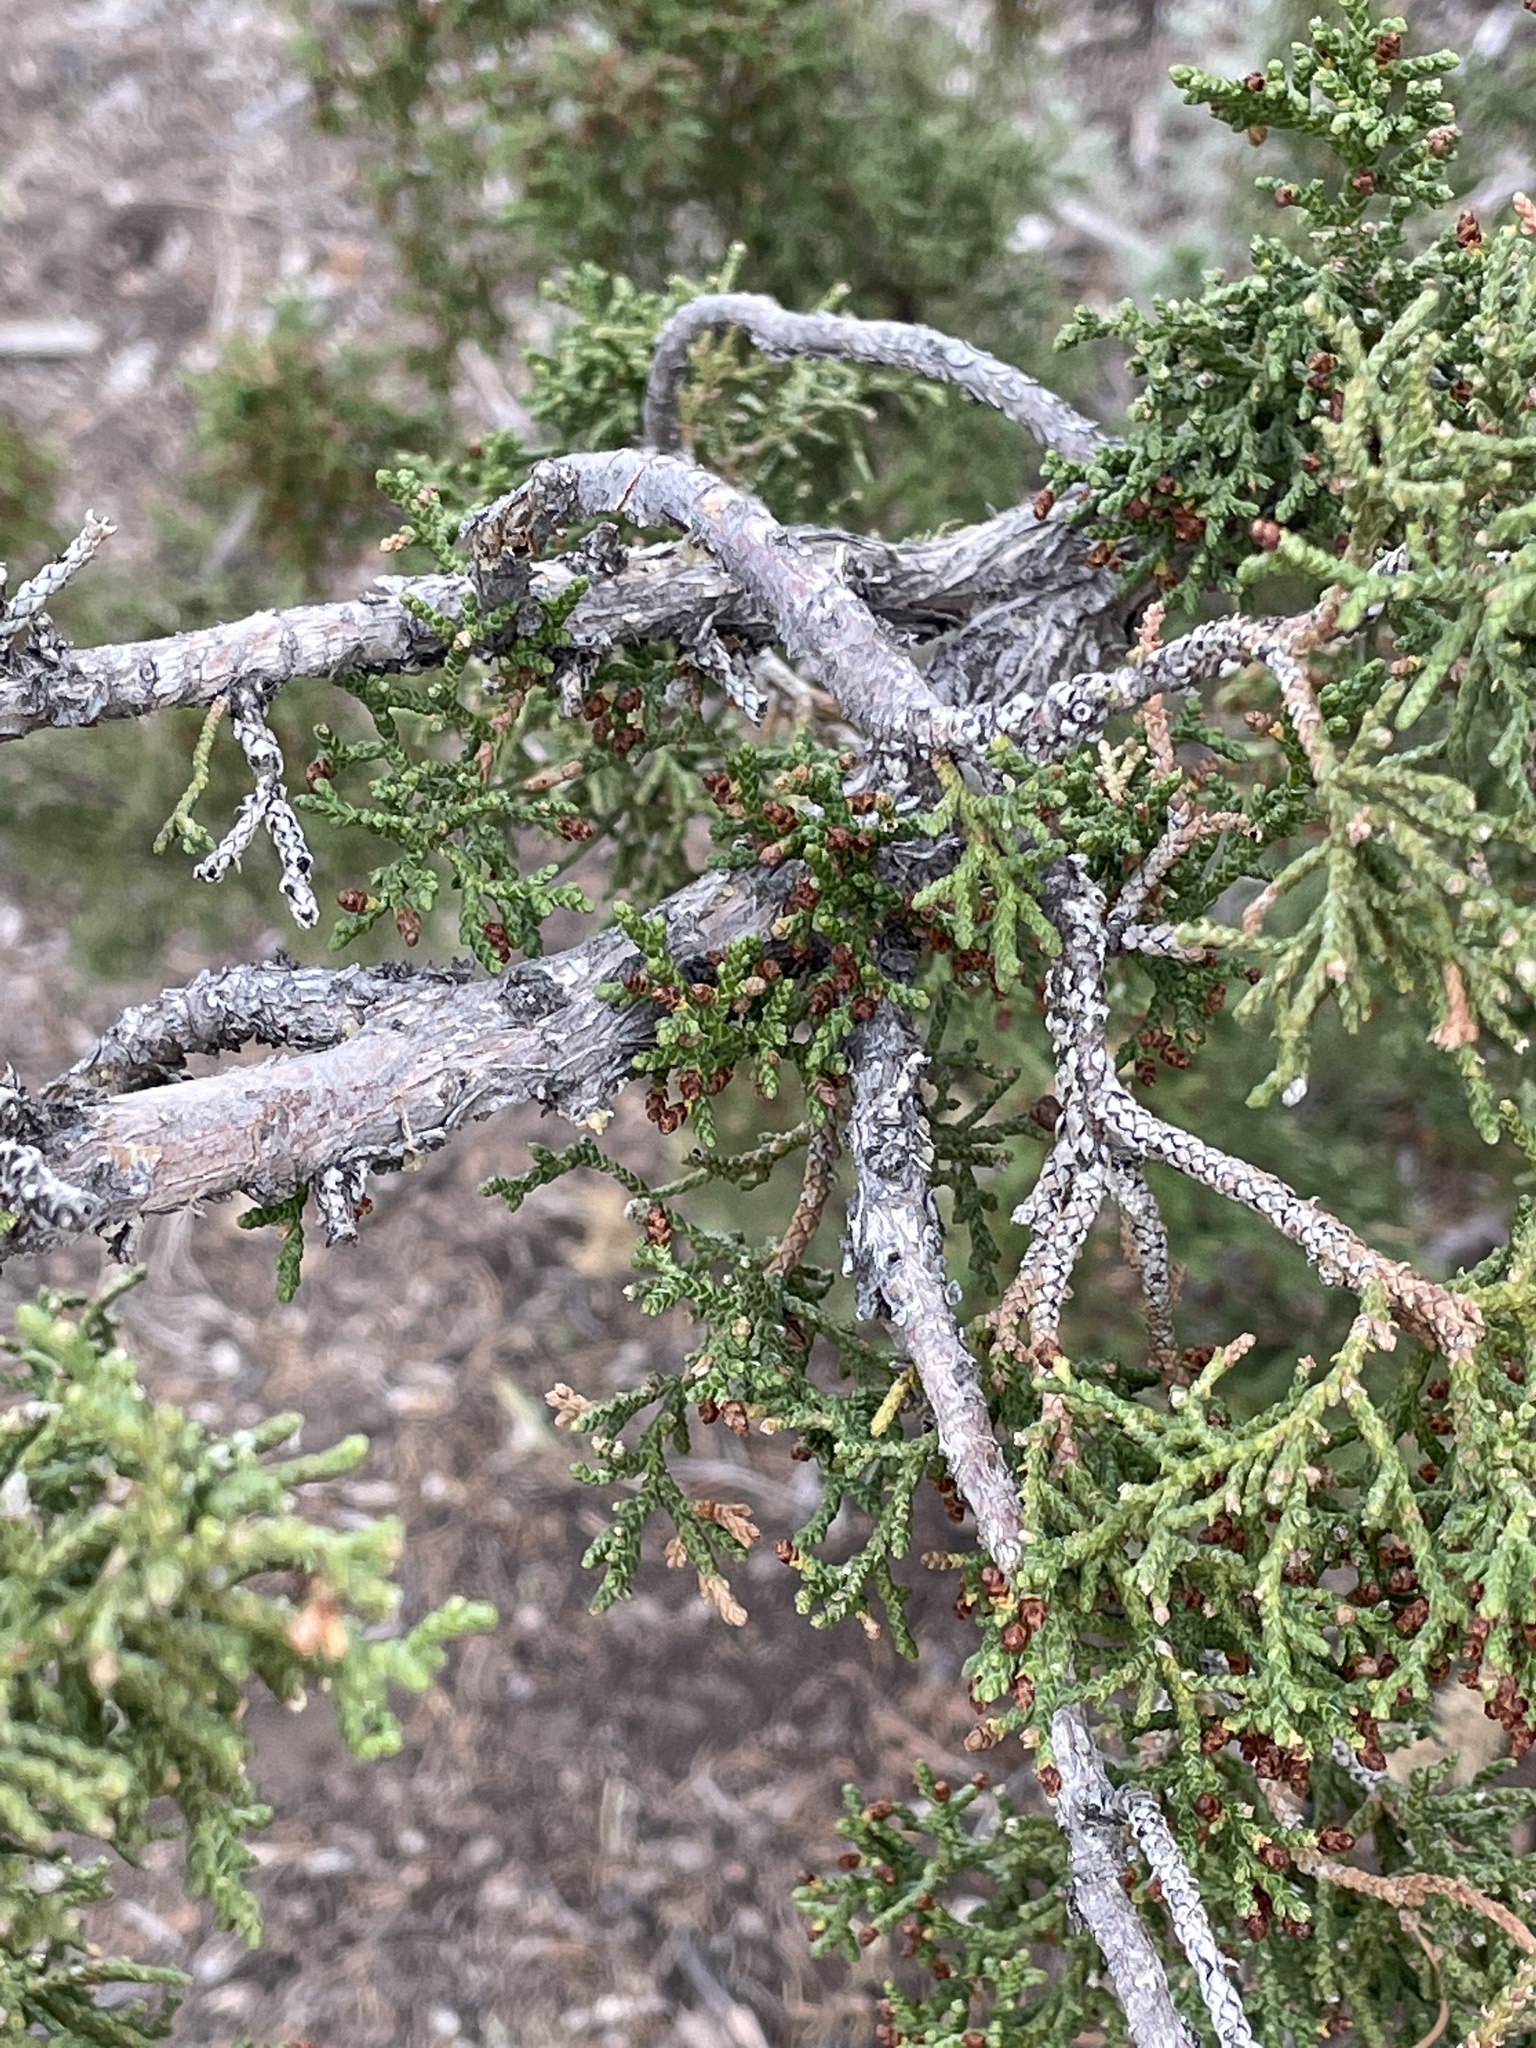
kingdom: Plantae
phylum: Tracheophyta
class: Pinopsida
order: Pinales
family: Cupressaceae
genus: Juniperus
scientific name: Juniperus monosperma
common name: One-seed juniper
